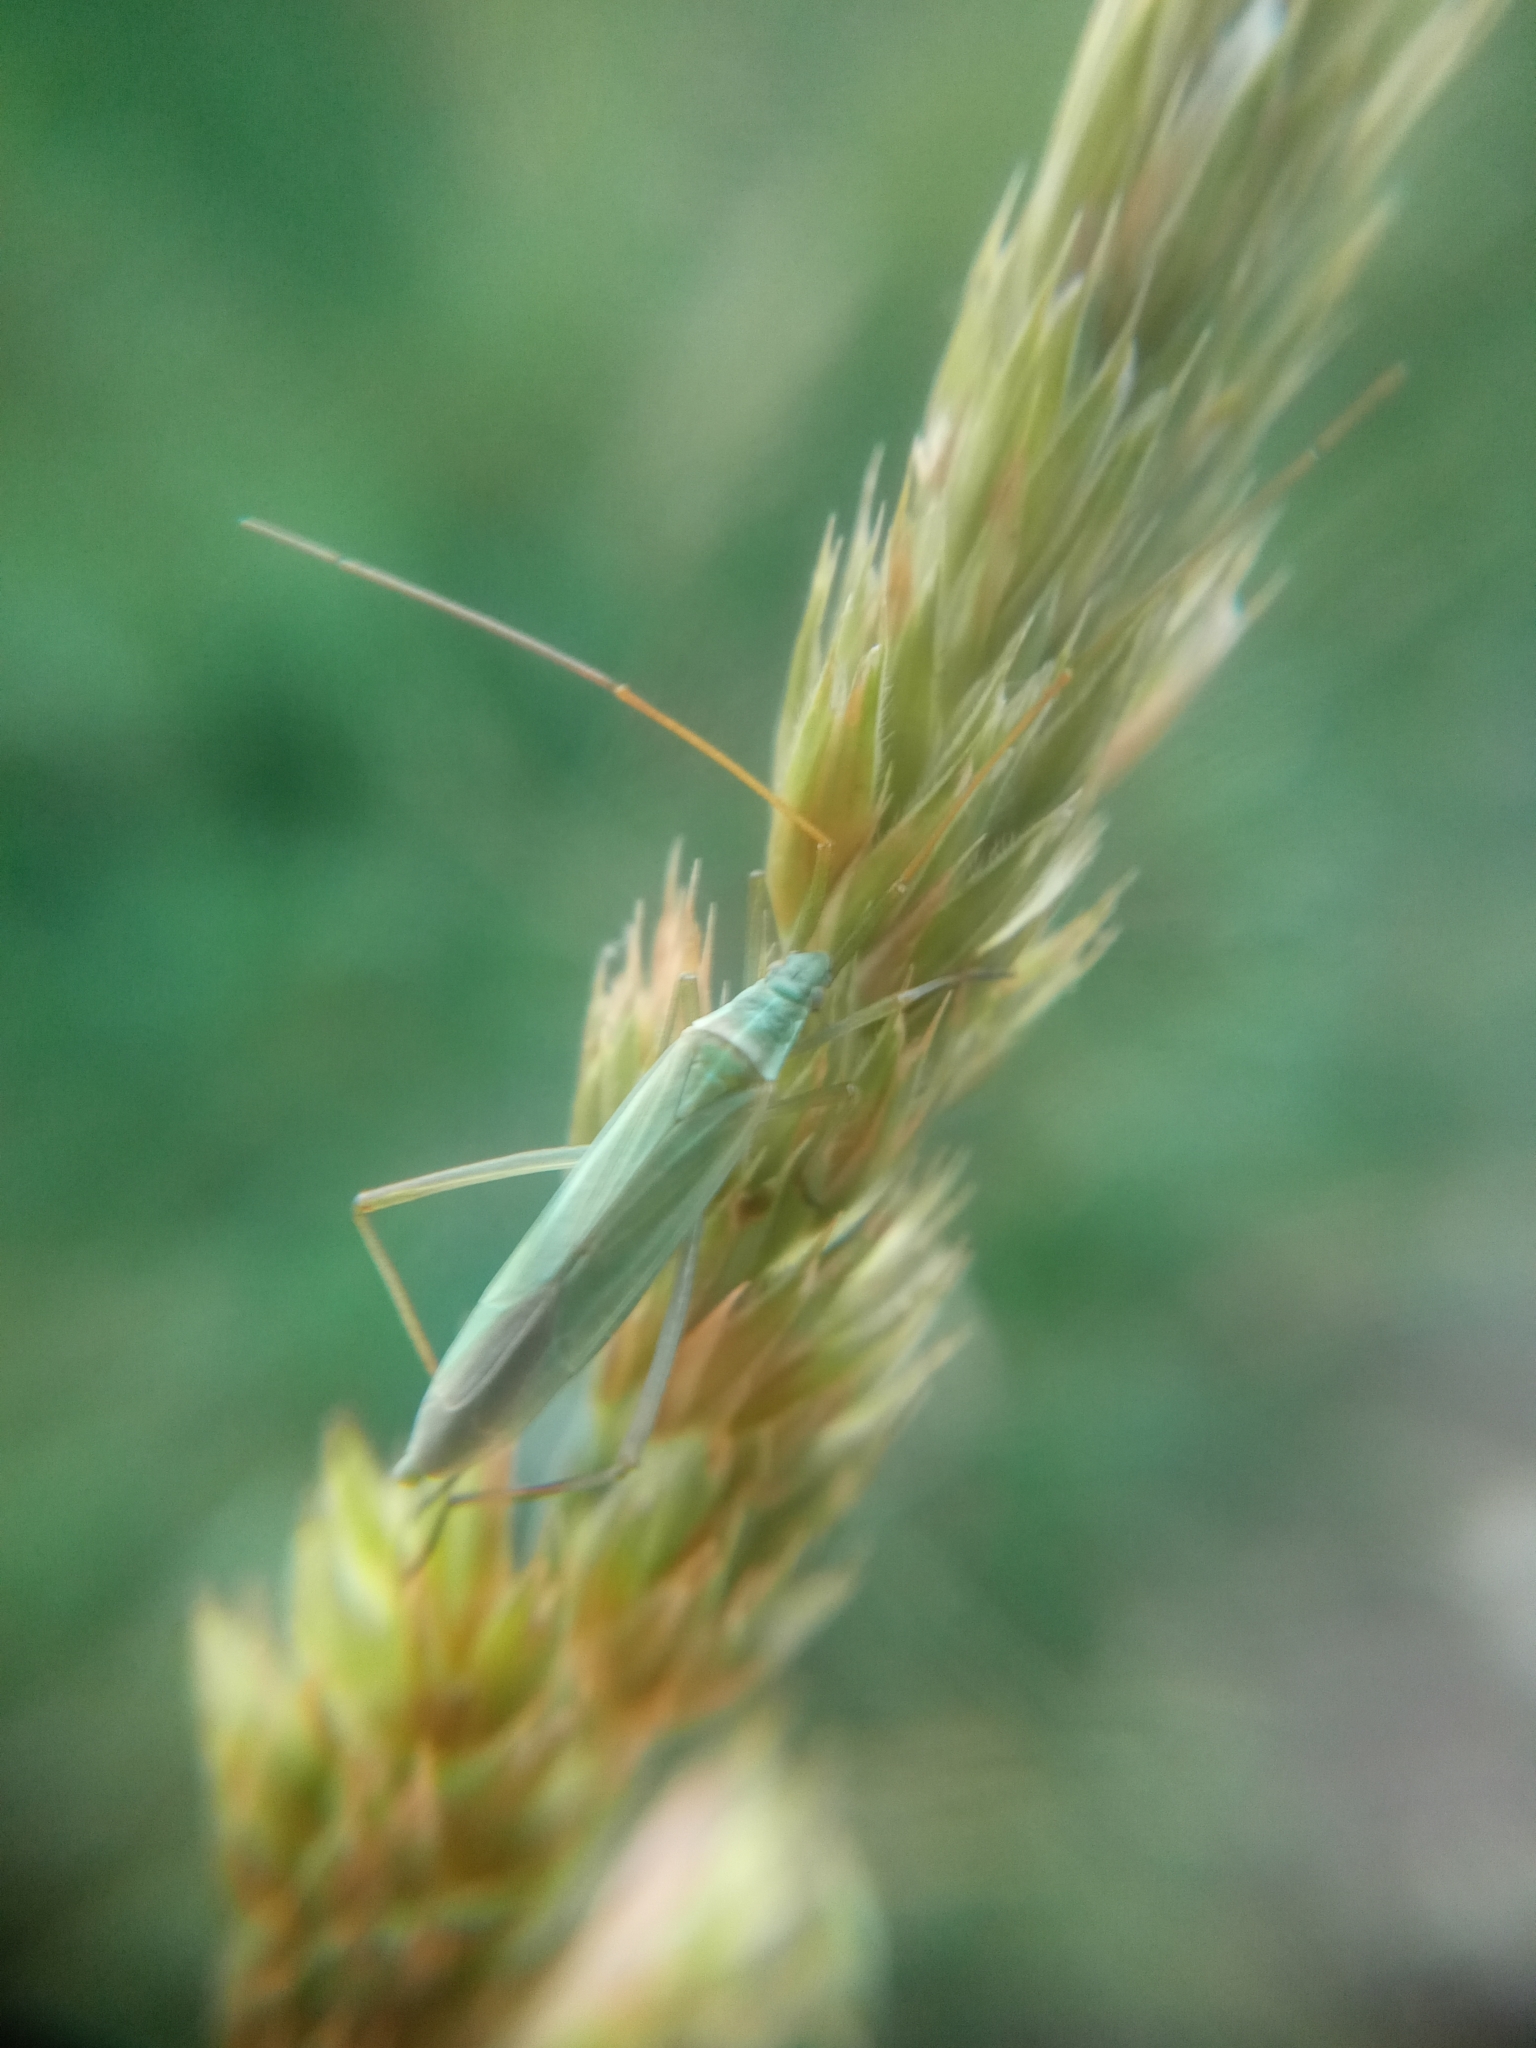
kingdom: Animalia
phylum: Arthropoda
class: Insecta
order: Hemiptera
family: Miridae
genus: Megaloceroea
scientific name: Megaloceroea recticornis
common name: Plant bug
